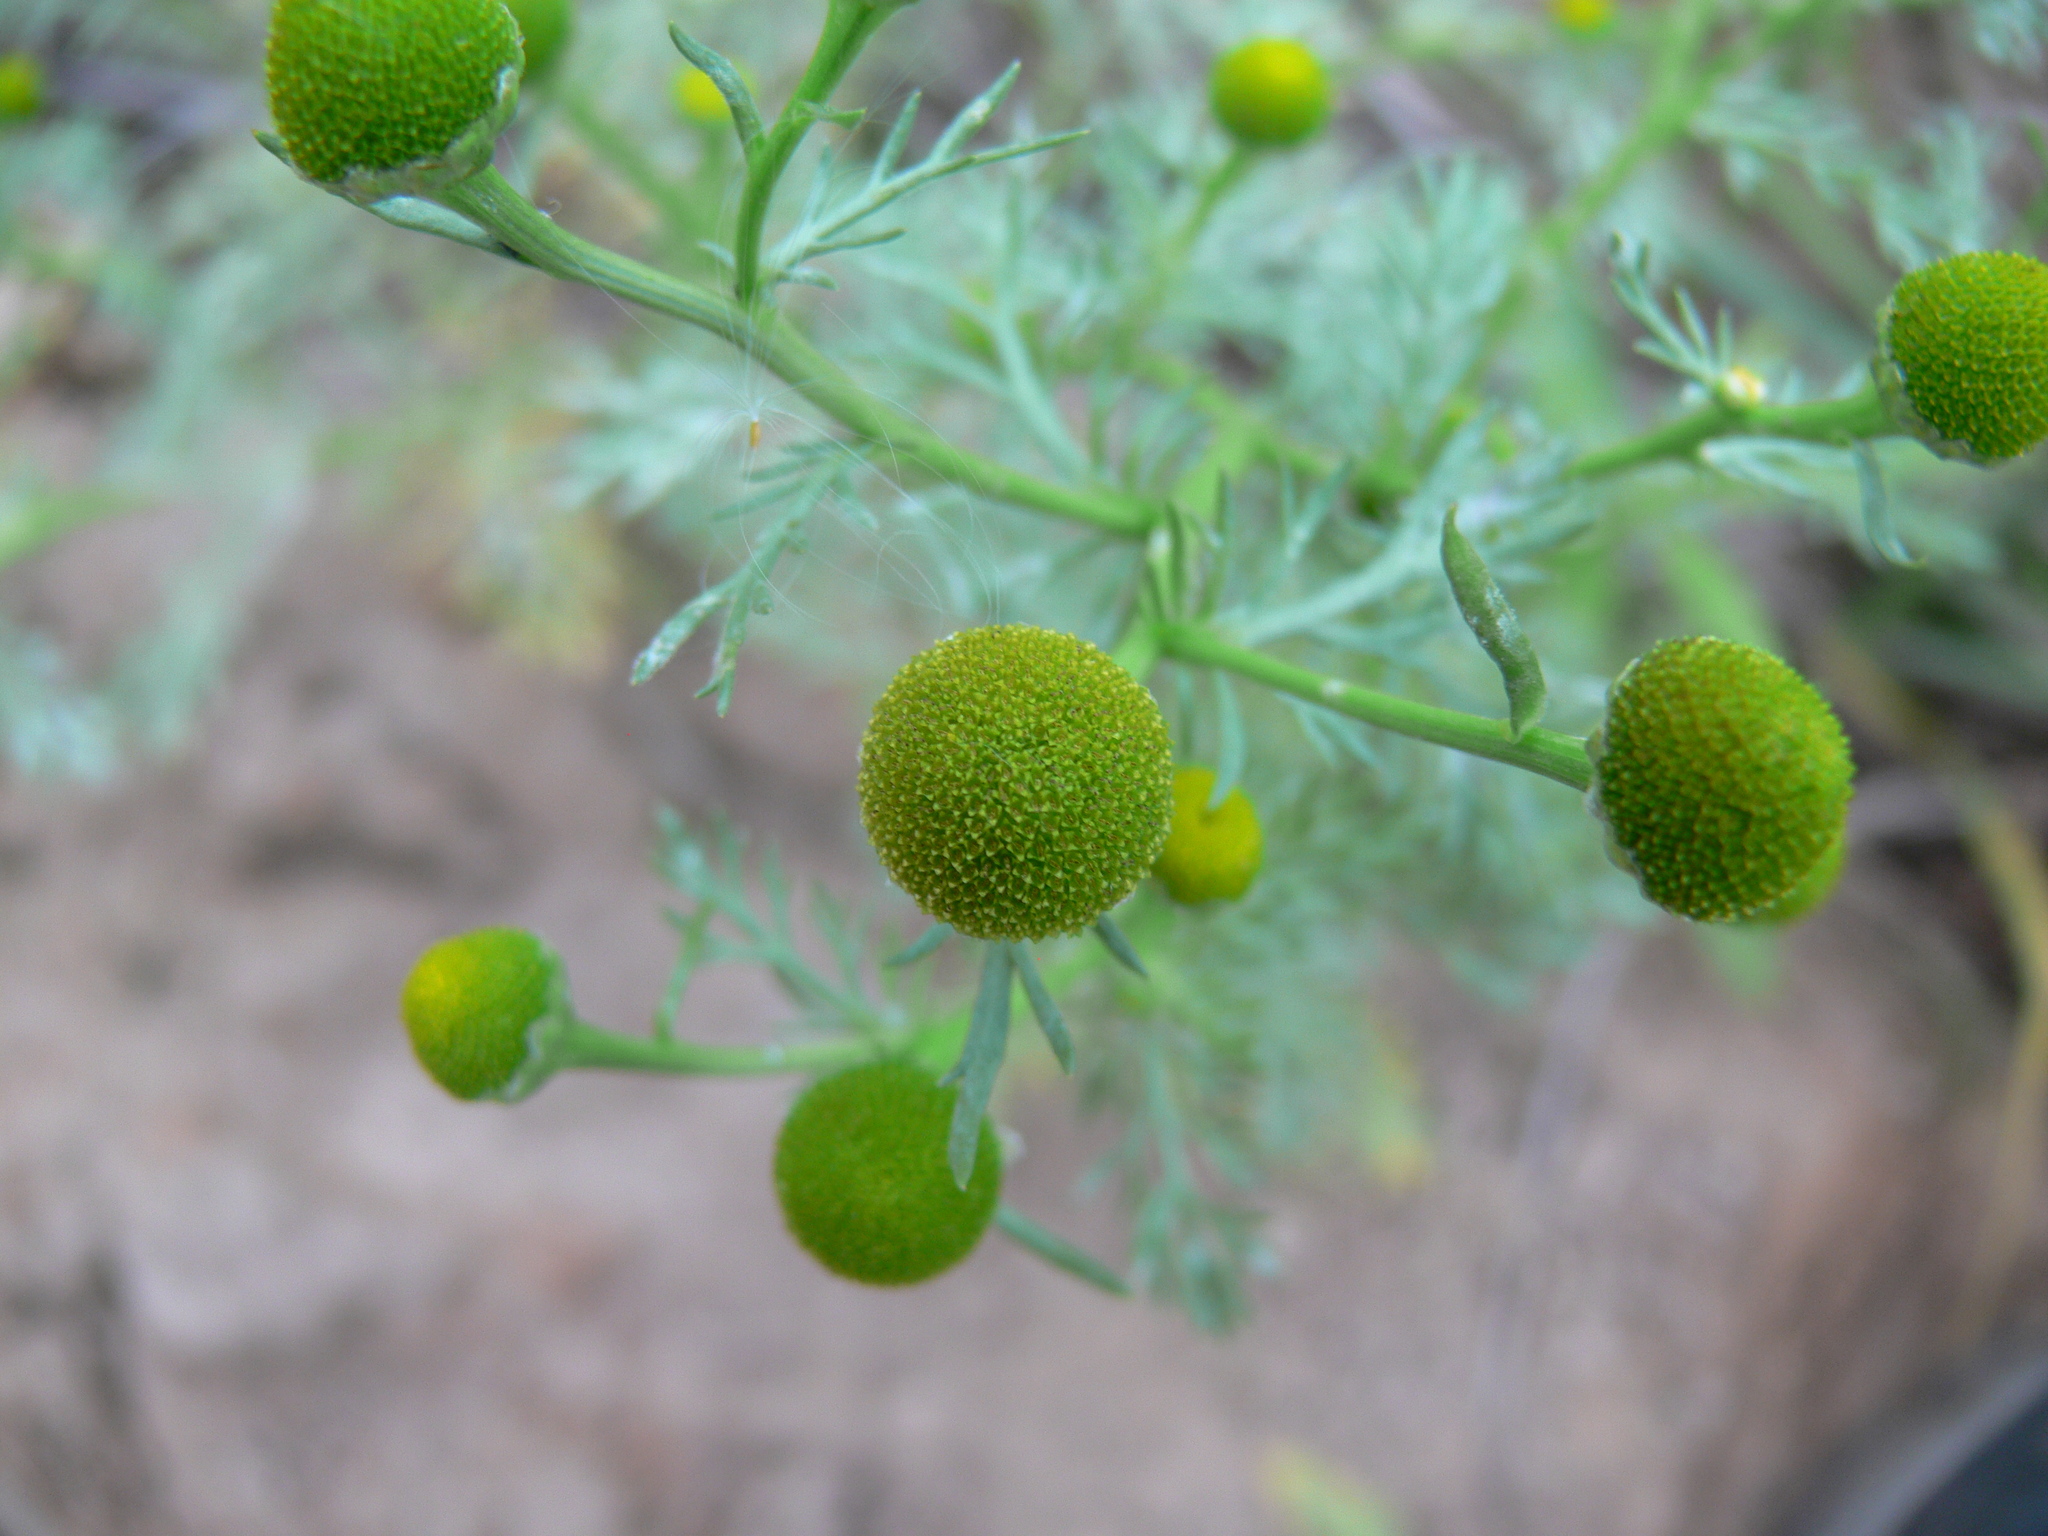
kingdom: Plantae
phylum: Tracheophyta
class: Magnoliopsida
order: Asterales
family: Asteraceae
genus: Matricaria
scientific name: Matricaria discoidea
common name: Disc mayweed
